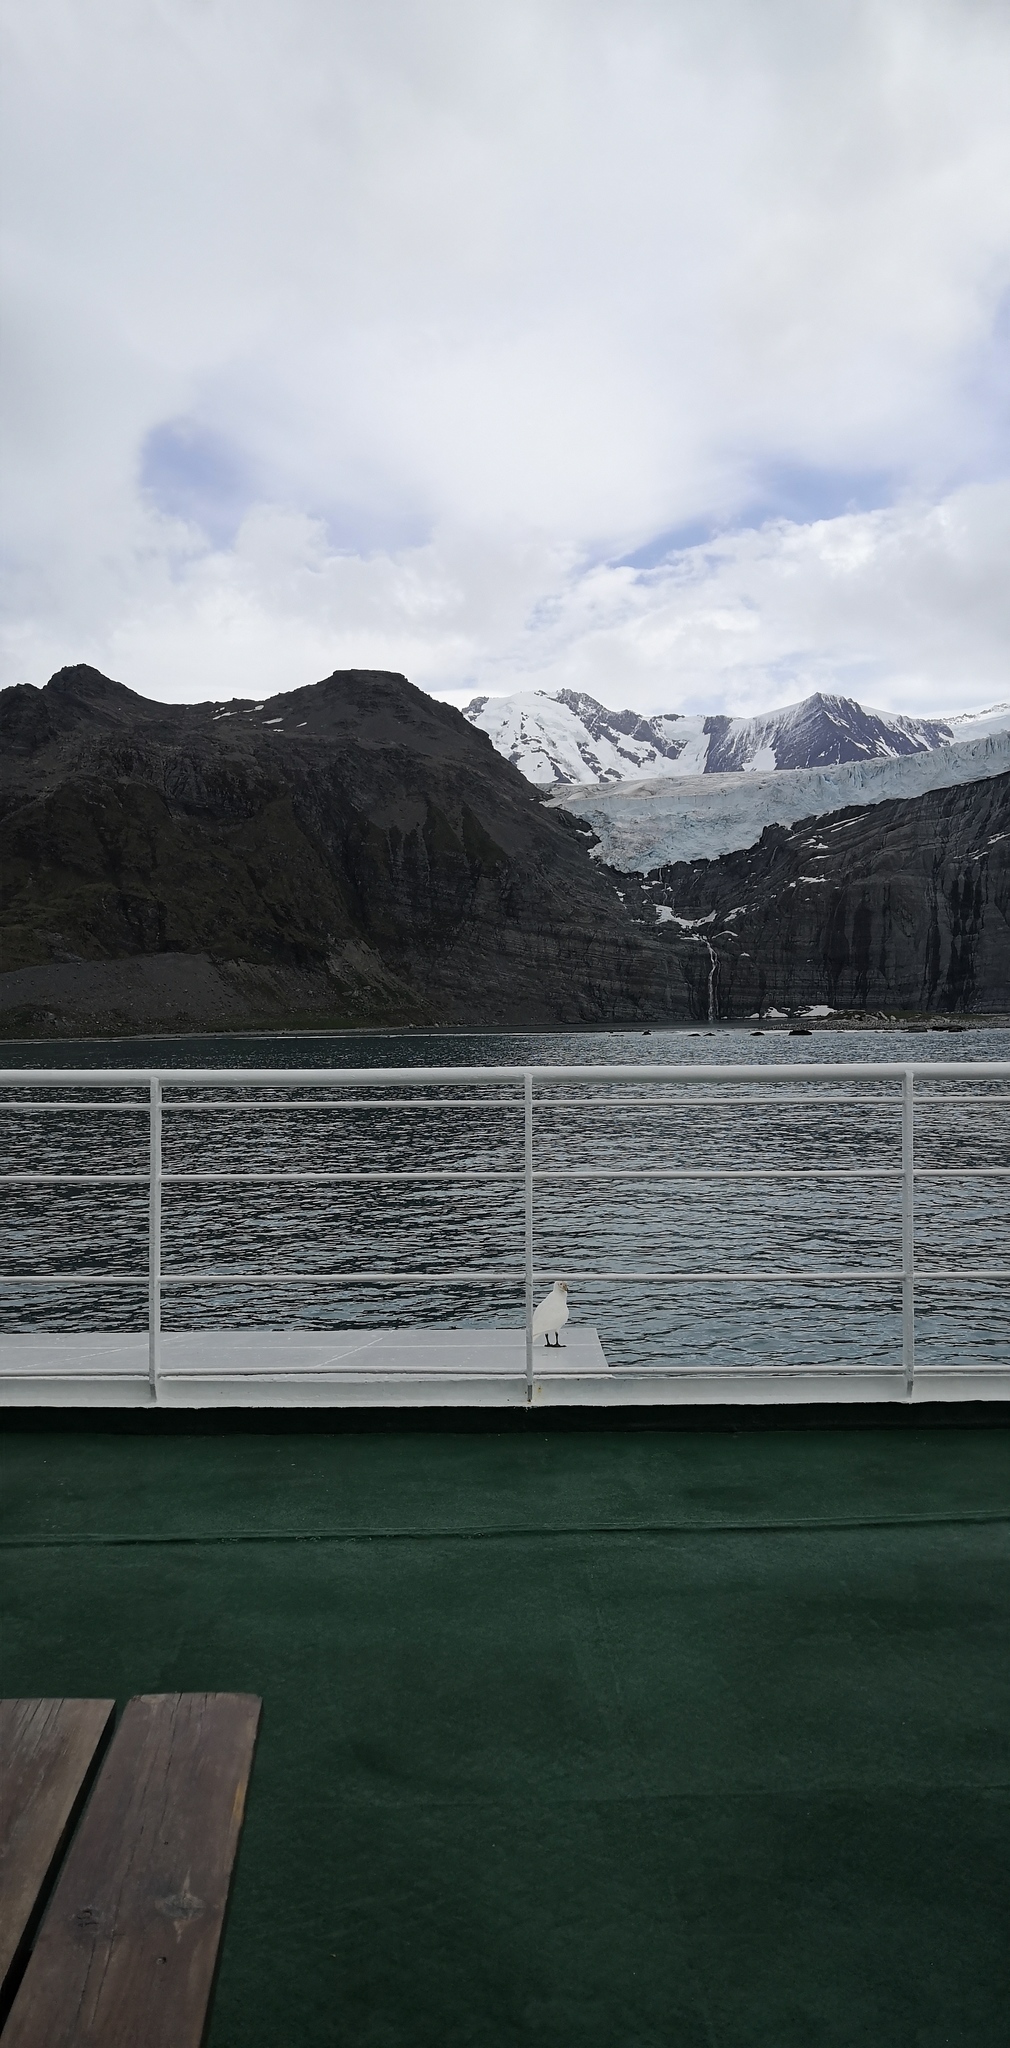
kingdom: Animalia
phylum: Chordata
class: Aves
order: Charadriiformes
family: Chionidae
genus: Chionis
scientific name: Chionis albus
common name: Snowy sheathbill
